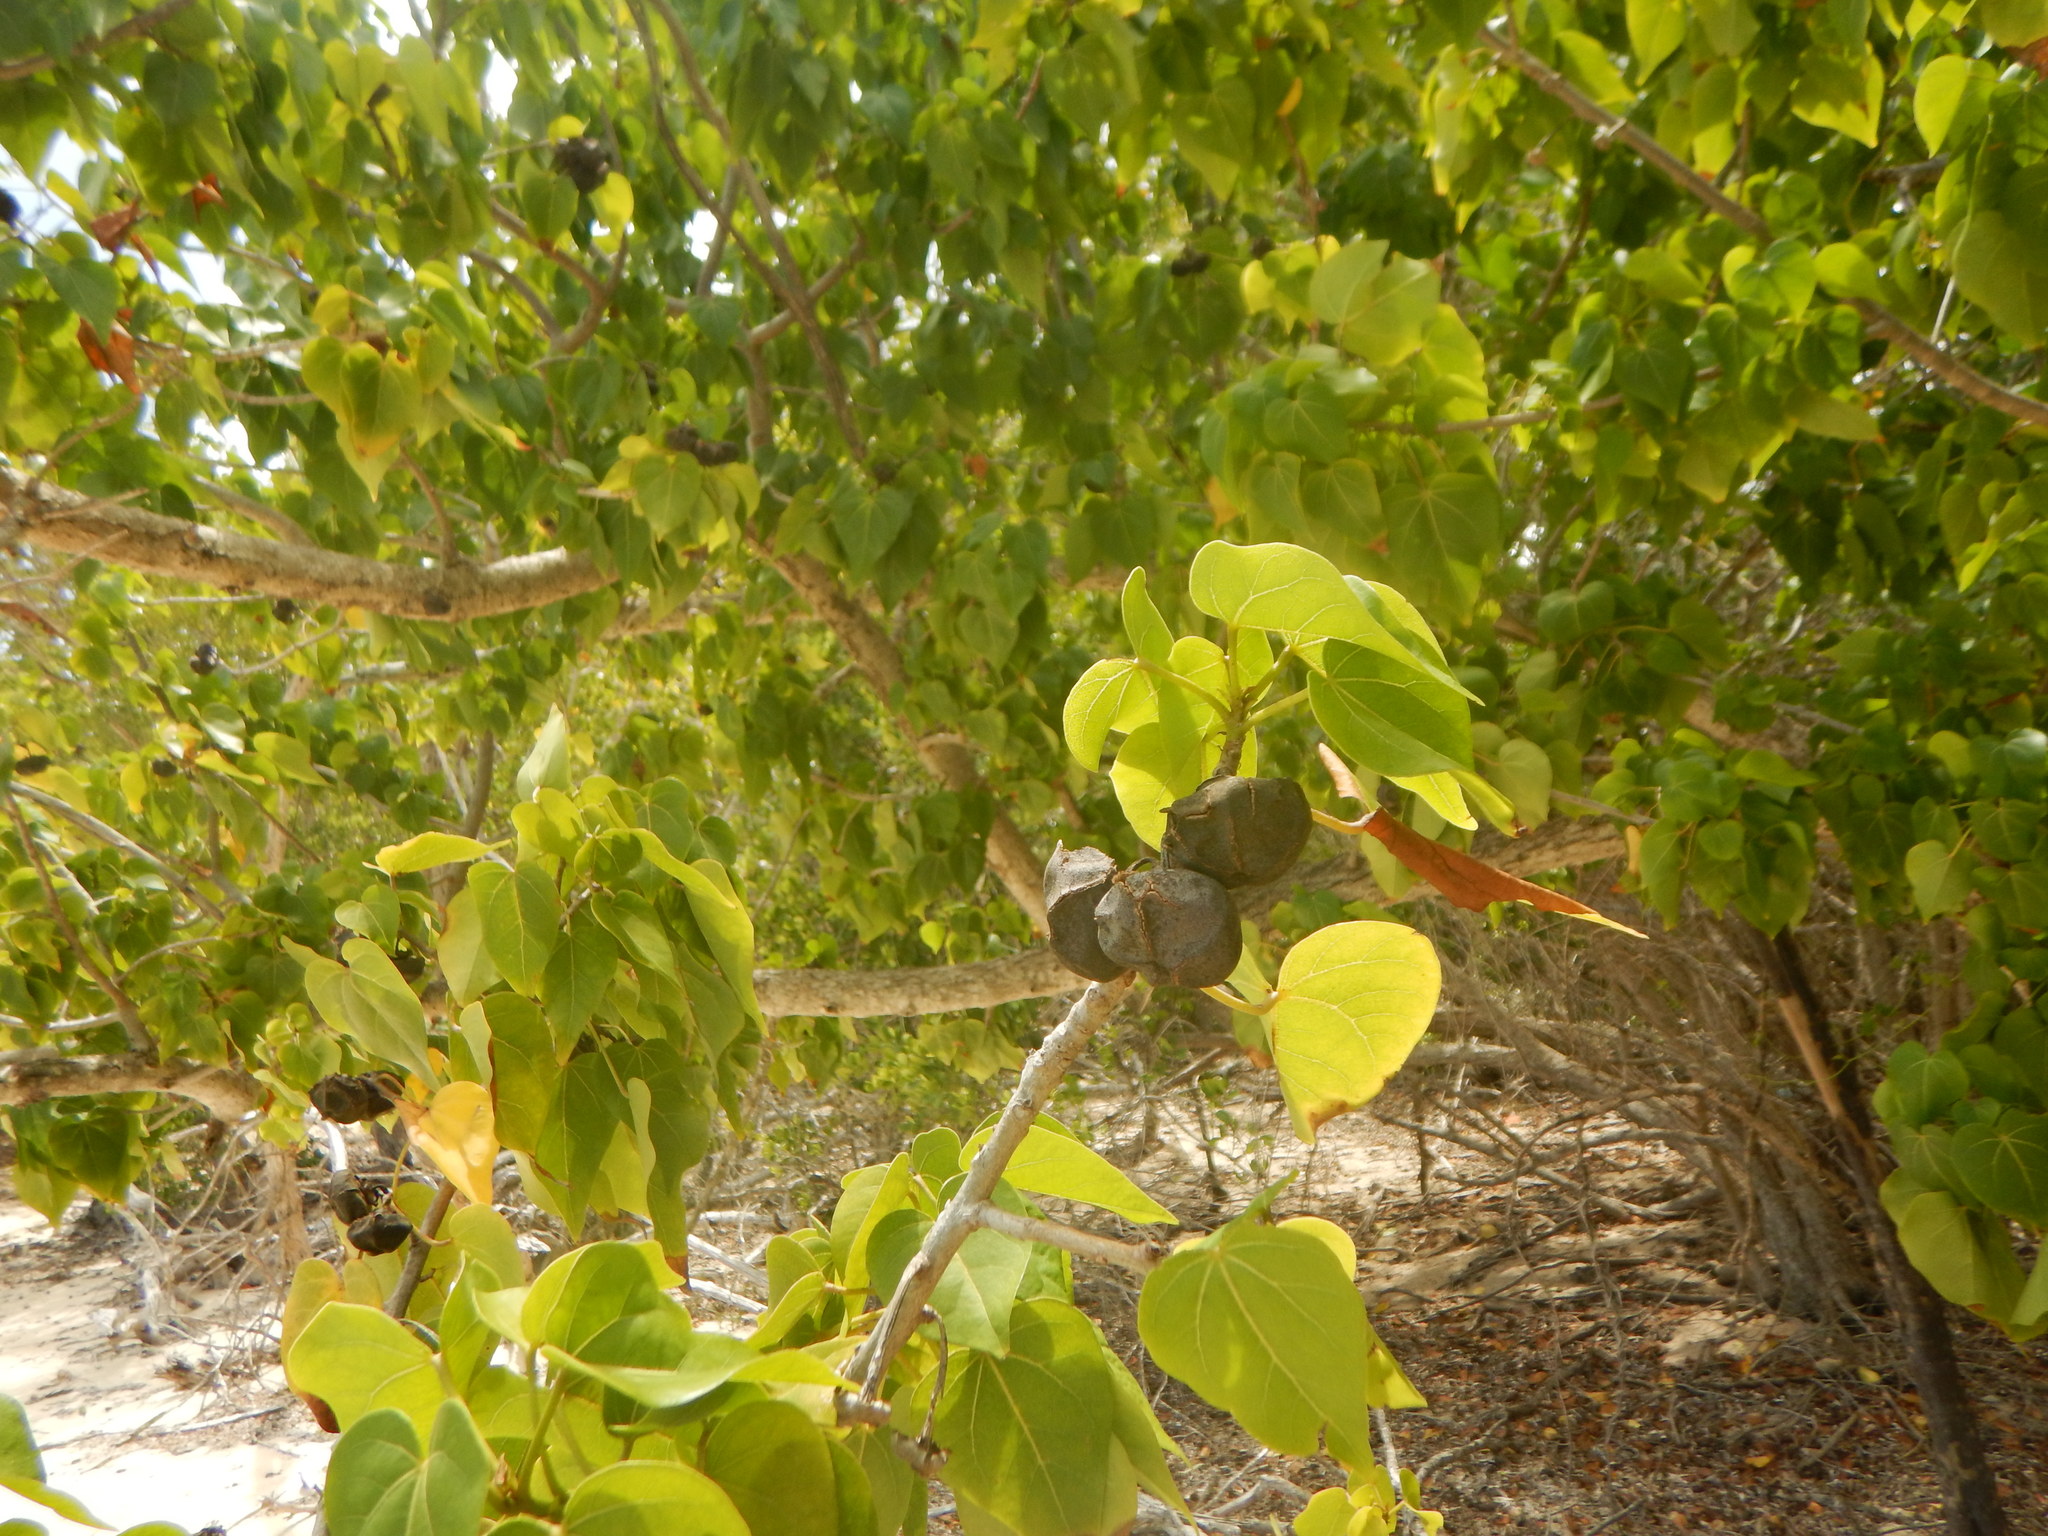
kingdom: Plantae
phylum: Tracheophyta
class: Magnoliopsida
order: Malvales
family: Malvaceae
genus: Thespesia
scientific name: Thespesia populnea
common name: Seaside mahoe
